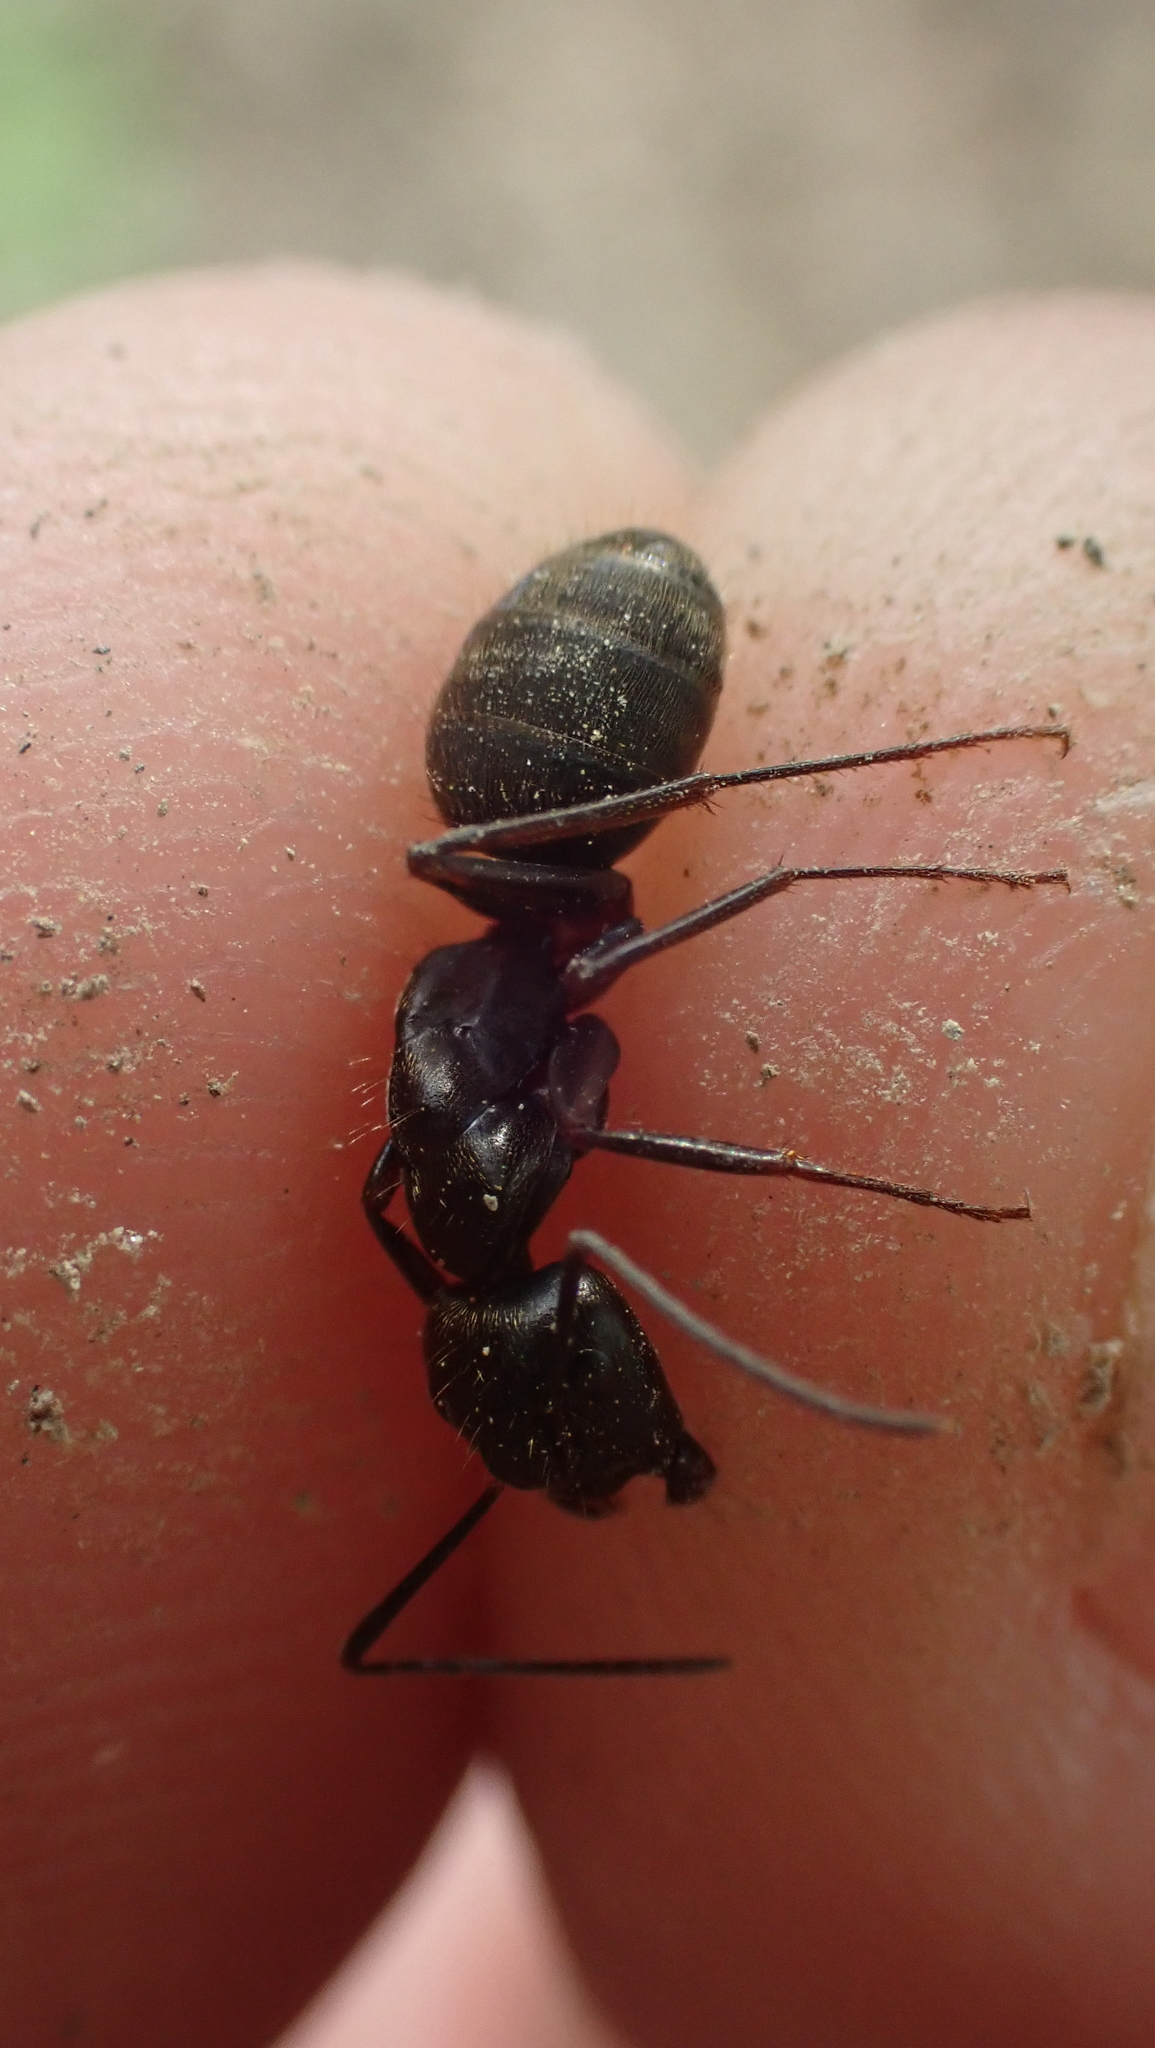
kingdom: Animalia
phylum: Arthropoda
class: Insecta
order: Hymenoptera
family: Formicidae
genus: Camponotus
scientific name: Camponotus chromaiodes
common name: Red carpenter ant
